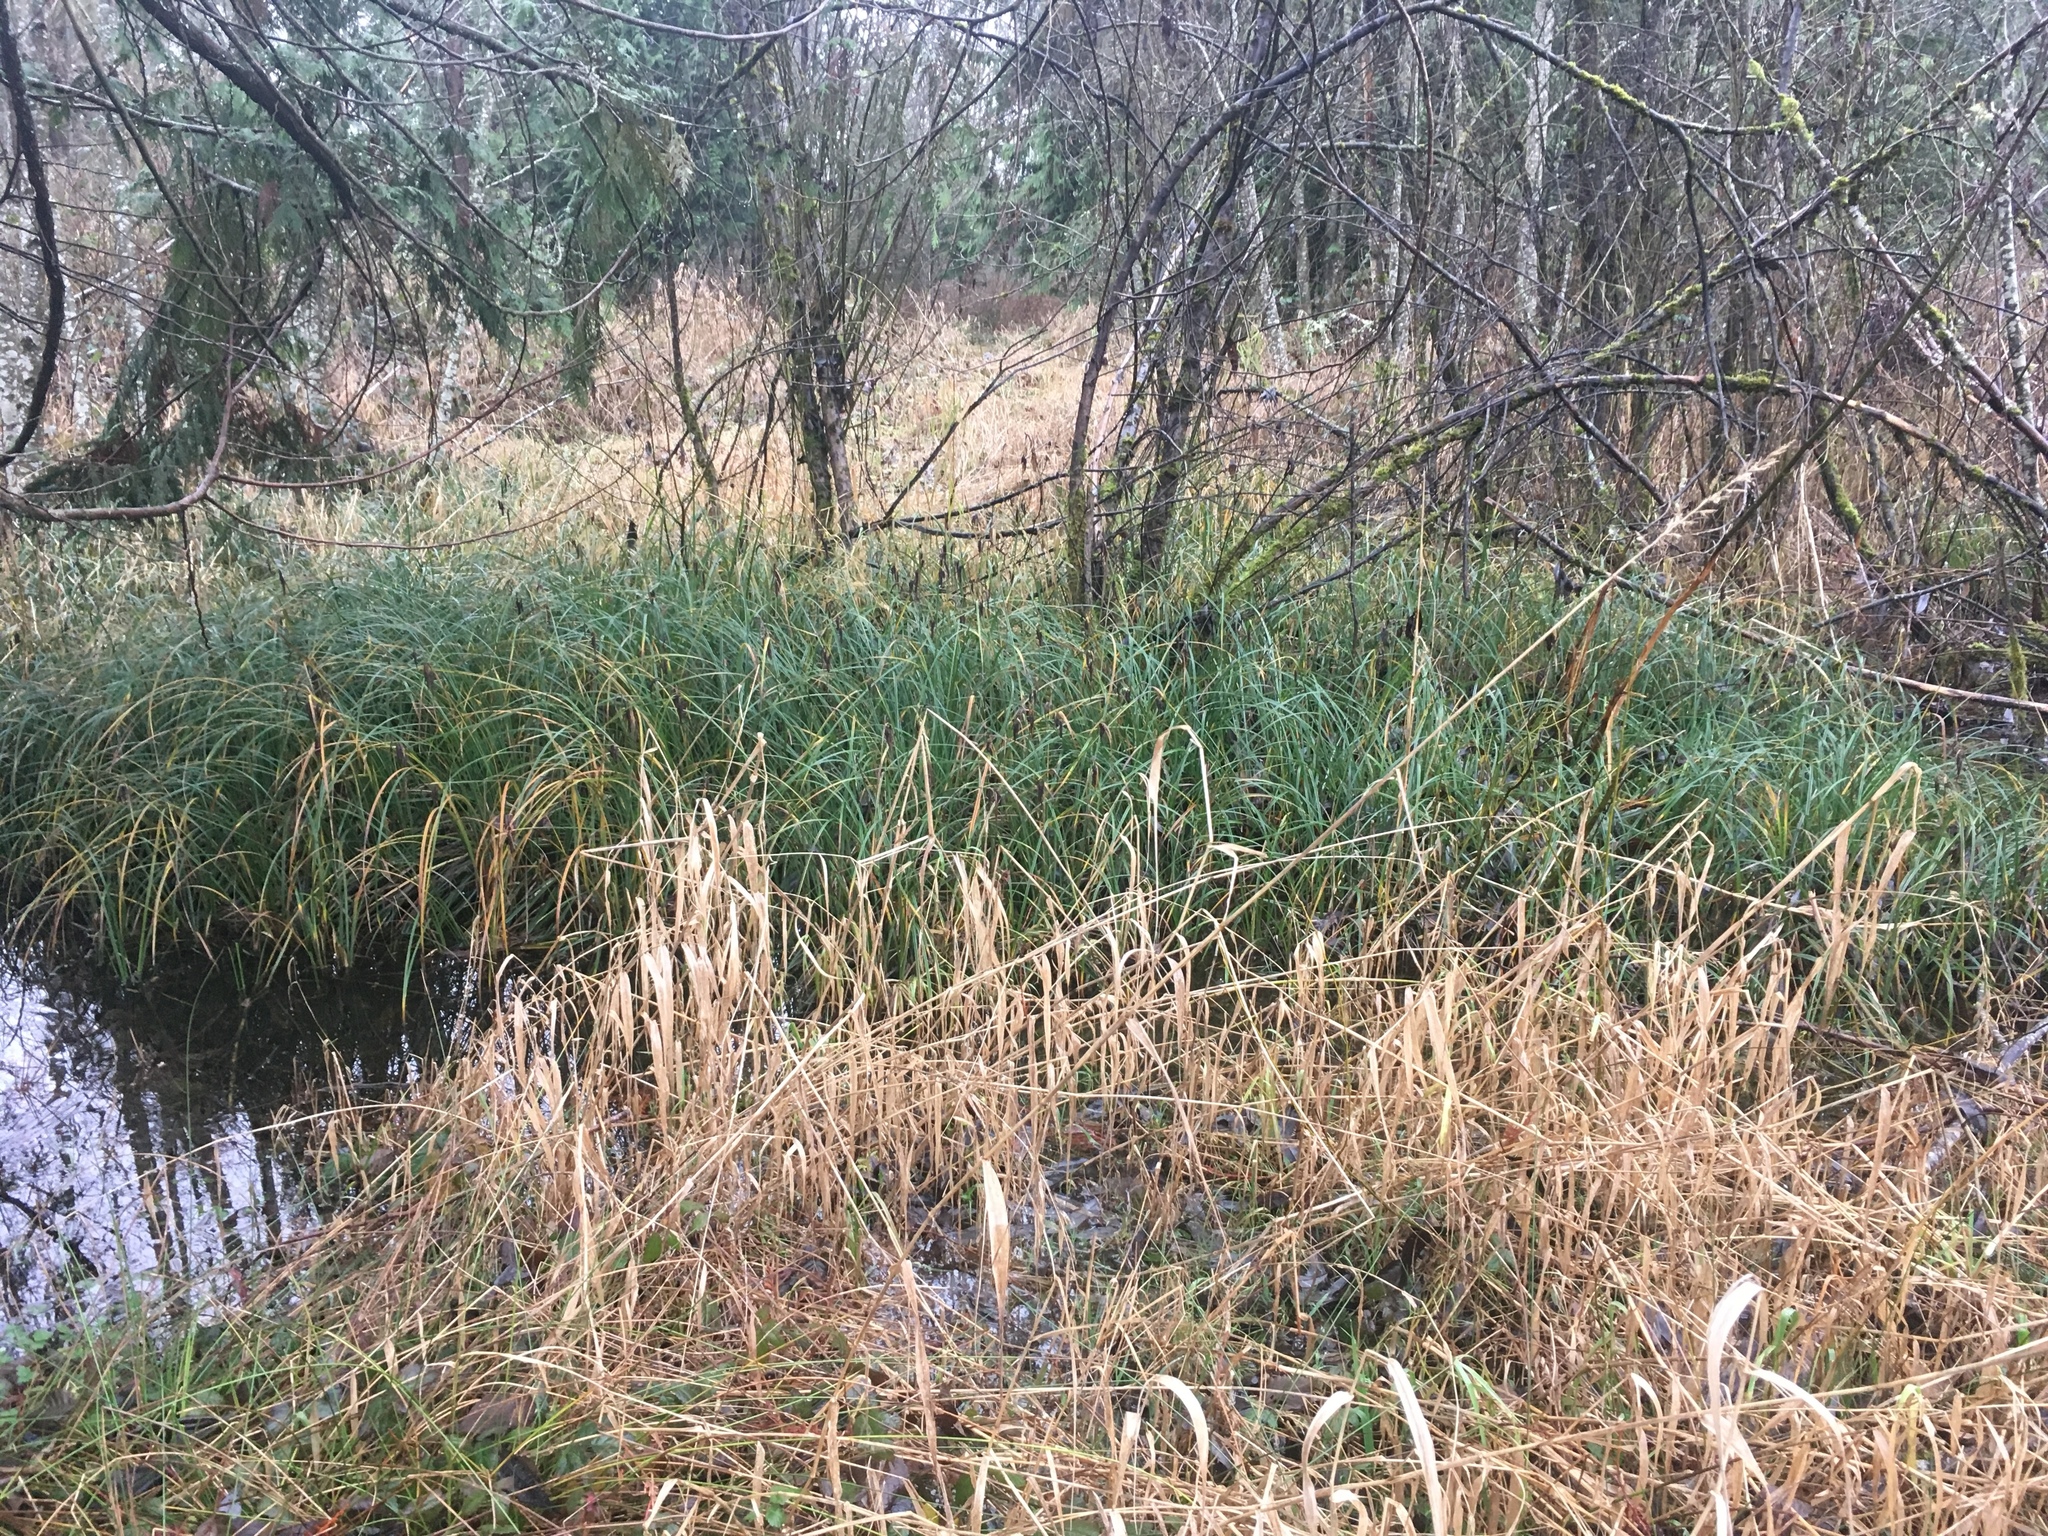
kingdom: Plantae
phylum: Tracheophyta
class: Liliopsida
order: Poales
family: Cyperaceae
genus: Carex
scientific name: Carex obnupta
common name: Slough sedge
